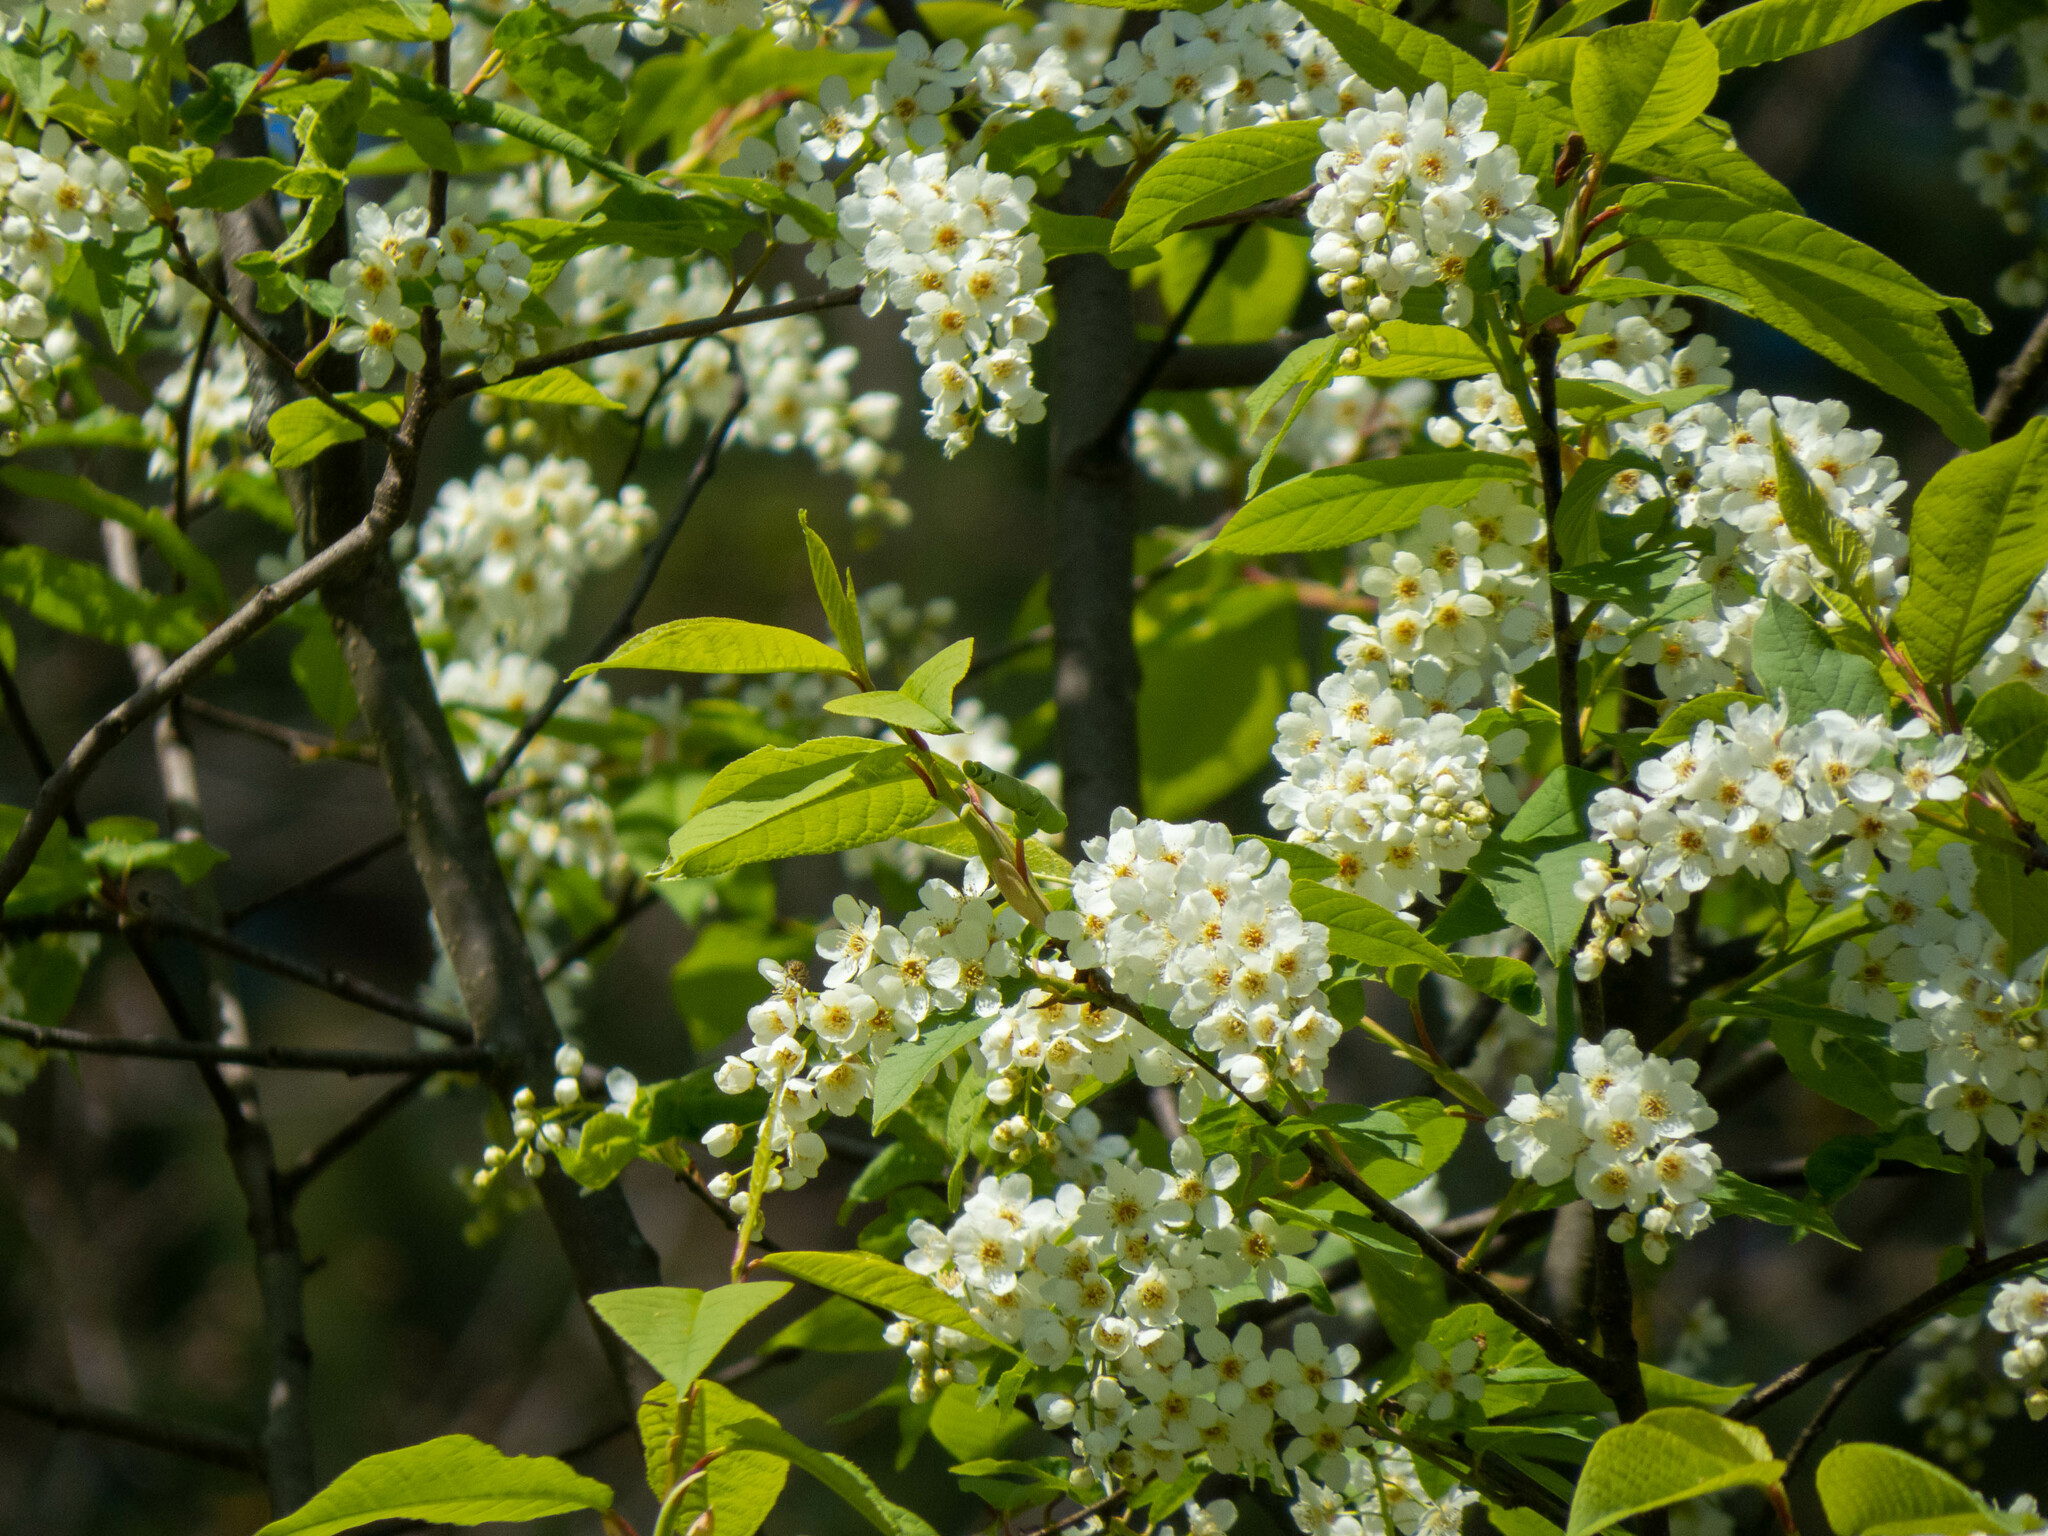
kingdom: Plantae
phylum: Tracheophyta
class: Magnoliopsida
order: Rosales
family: Rosaceae
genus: Prunus
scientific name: Prunus padus
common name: Bird cherry
